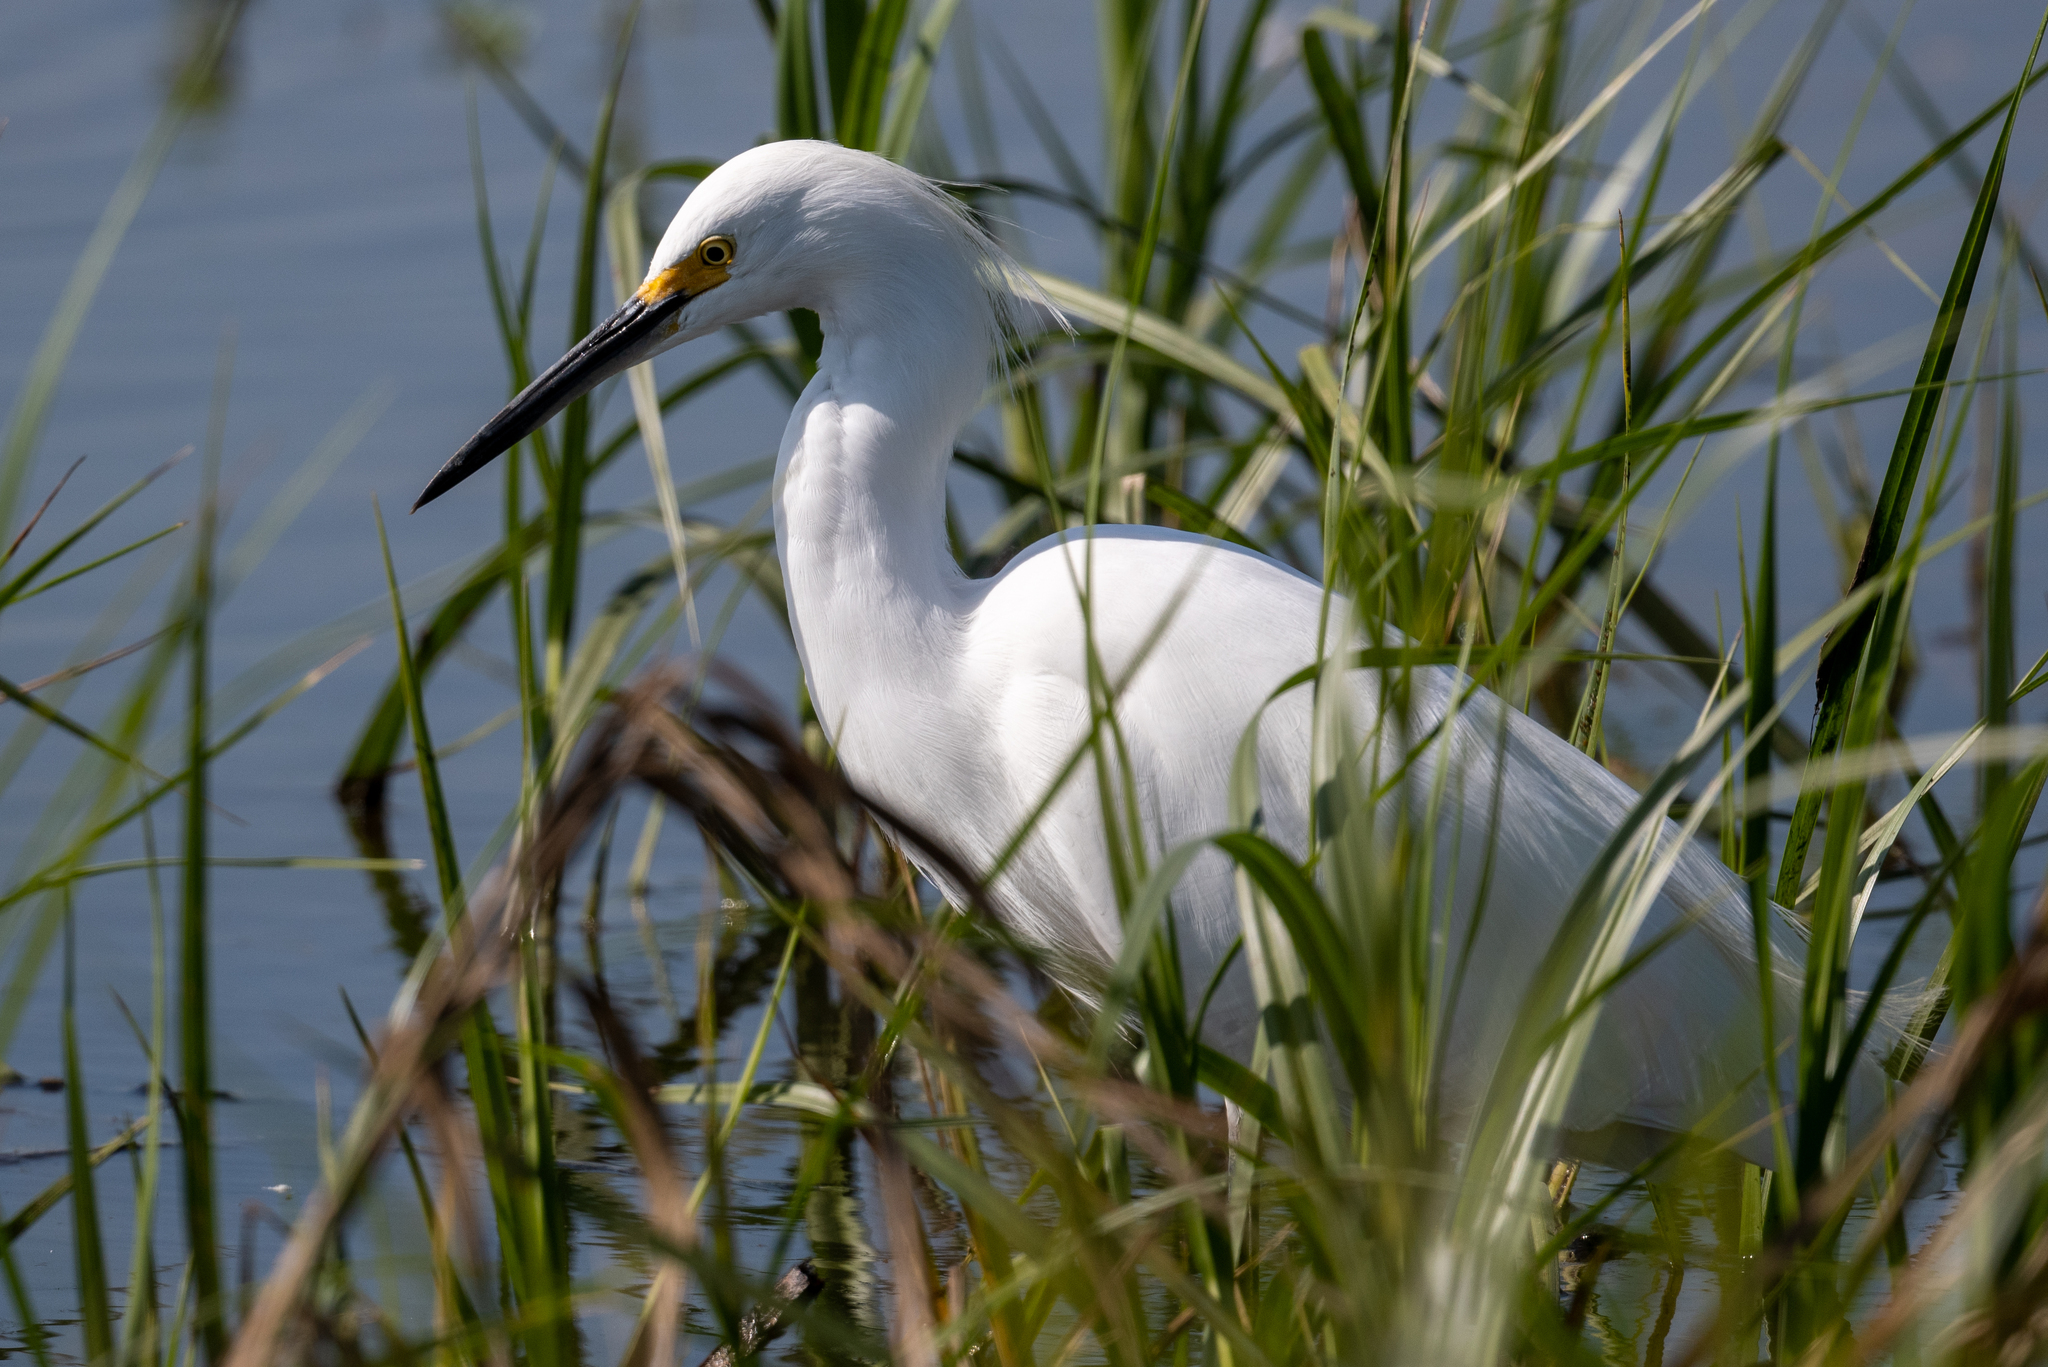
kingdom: Animalia
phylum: Chordata
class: Aves
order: Pelecaniformes
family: Ardeidae
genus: Egretta
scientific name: Egretta thula
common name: Snowy egret
